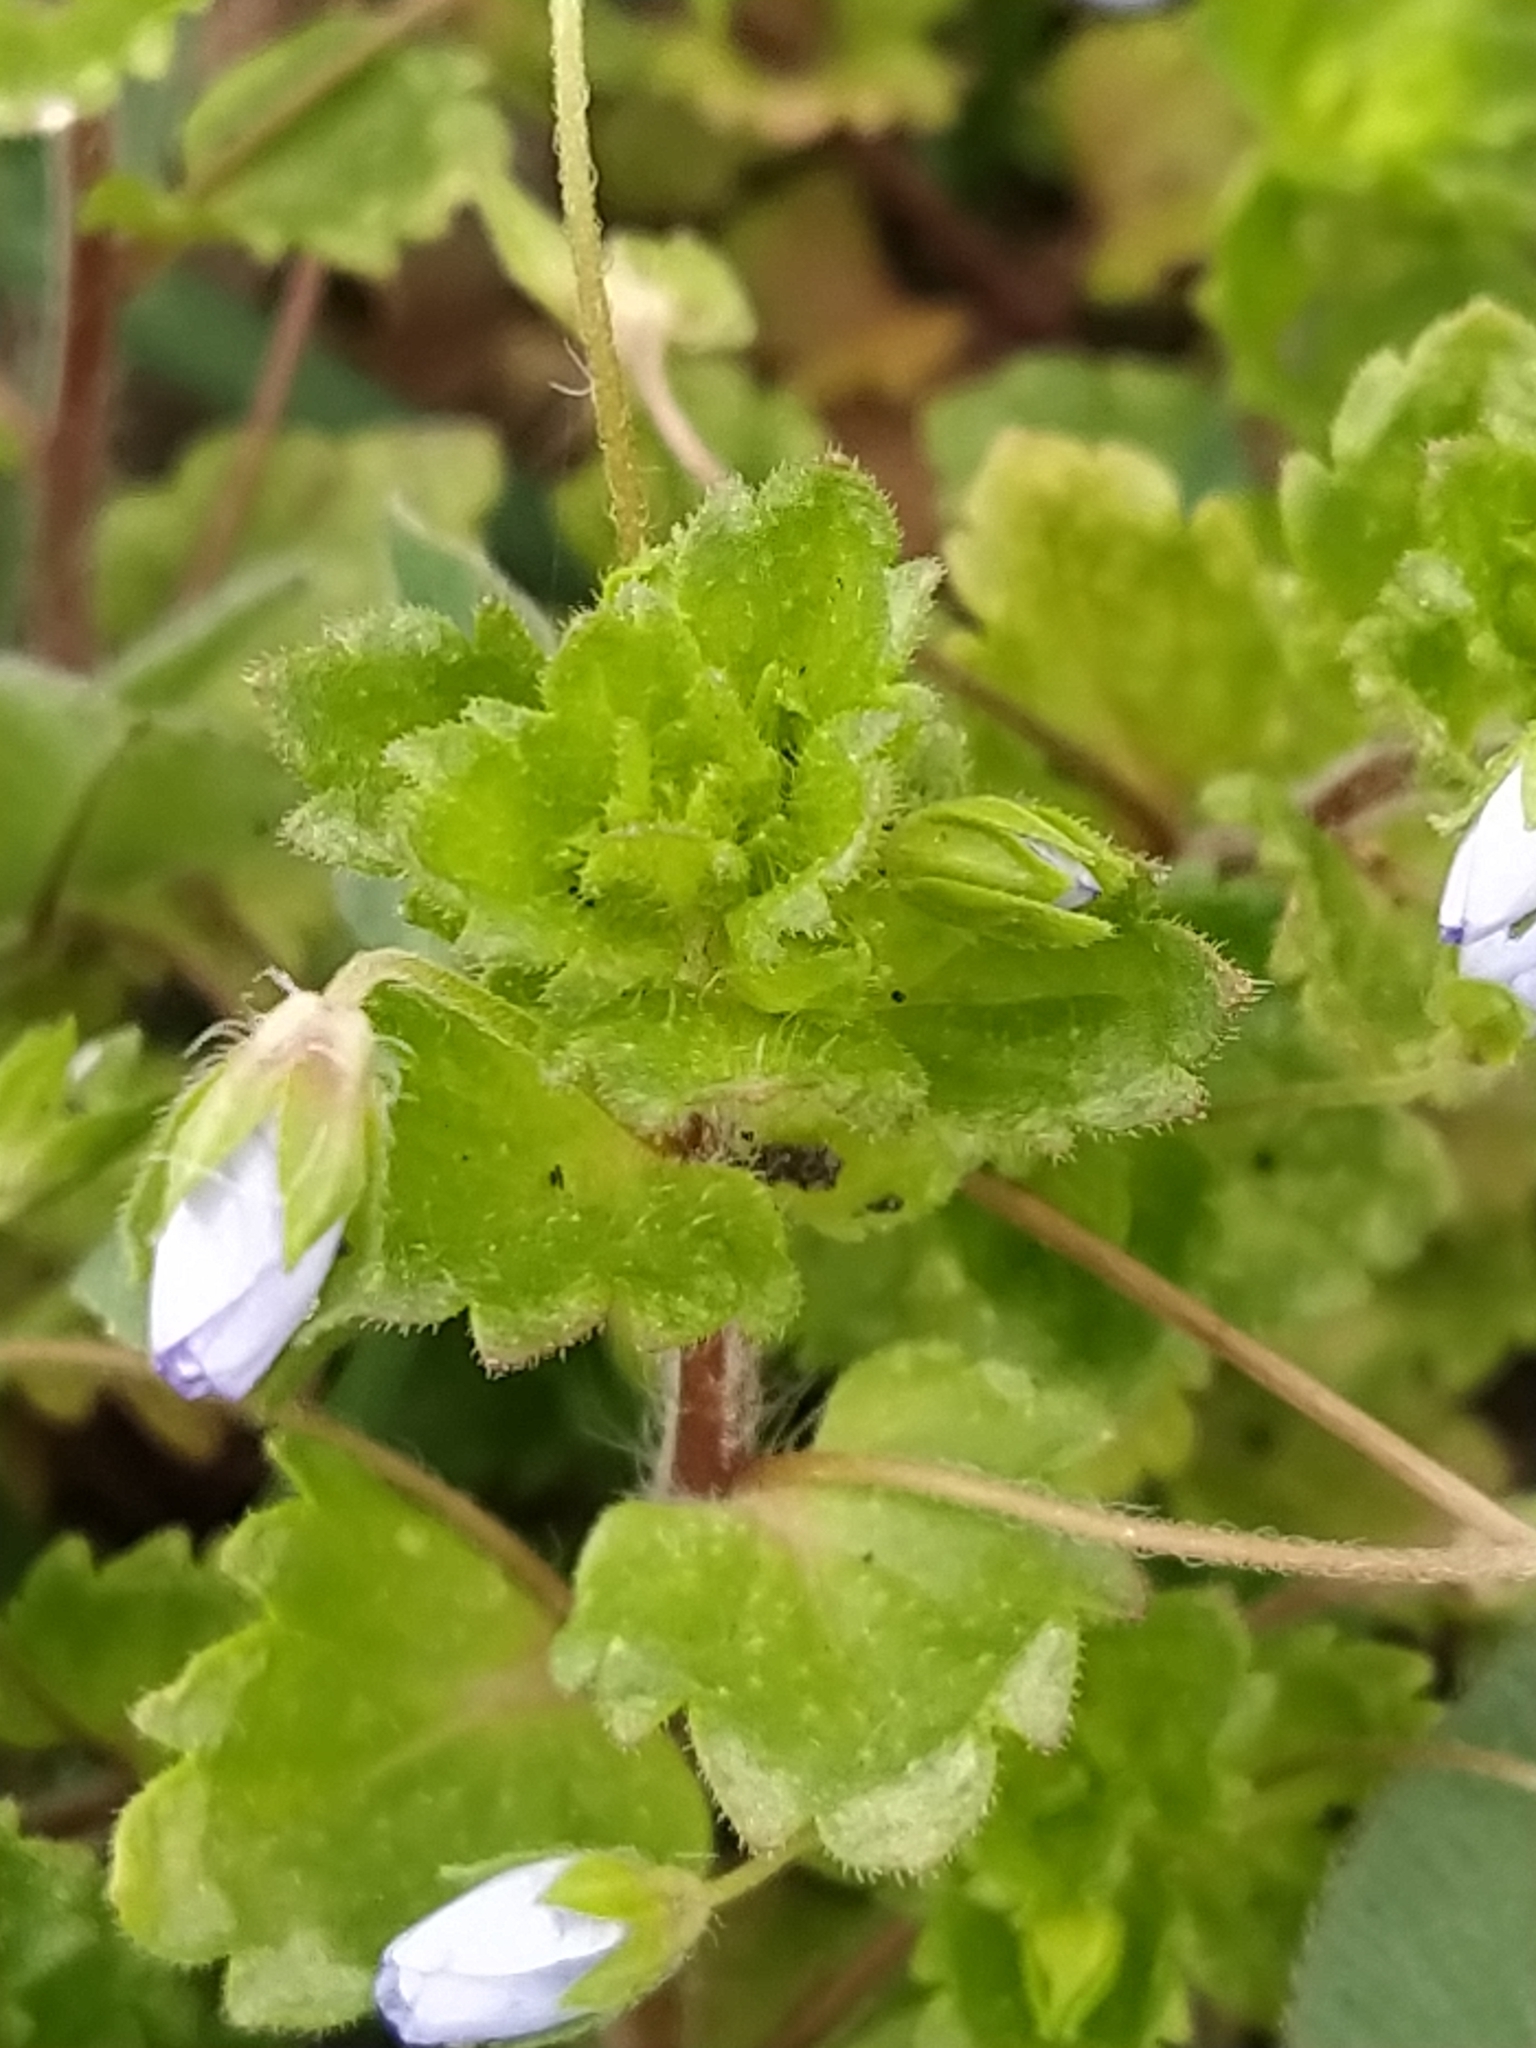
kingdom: Plantae
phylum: Tracheophyta
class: Magnoliopsida
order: Lamiales
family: Plantaginaceae
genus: Veronica
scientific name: Veronica persica
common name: Common field-speedwell
